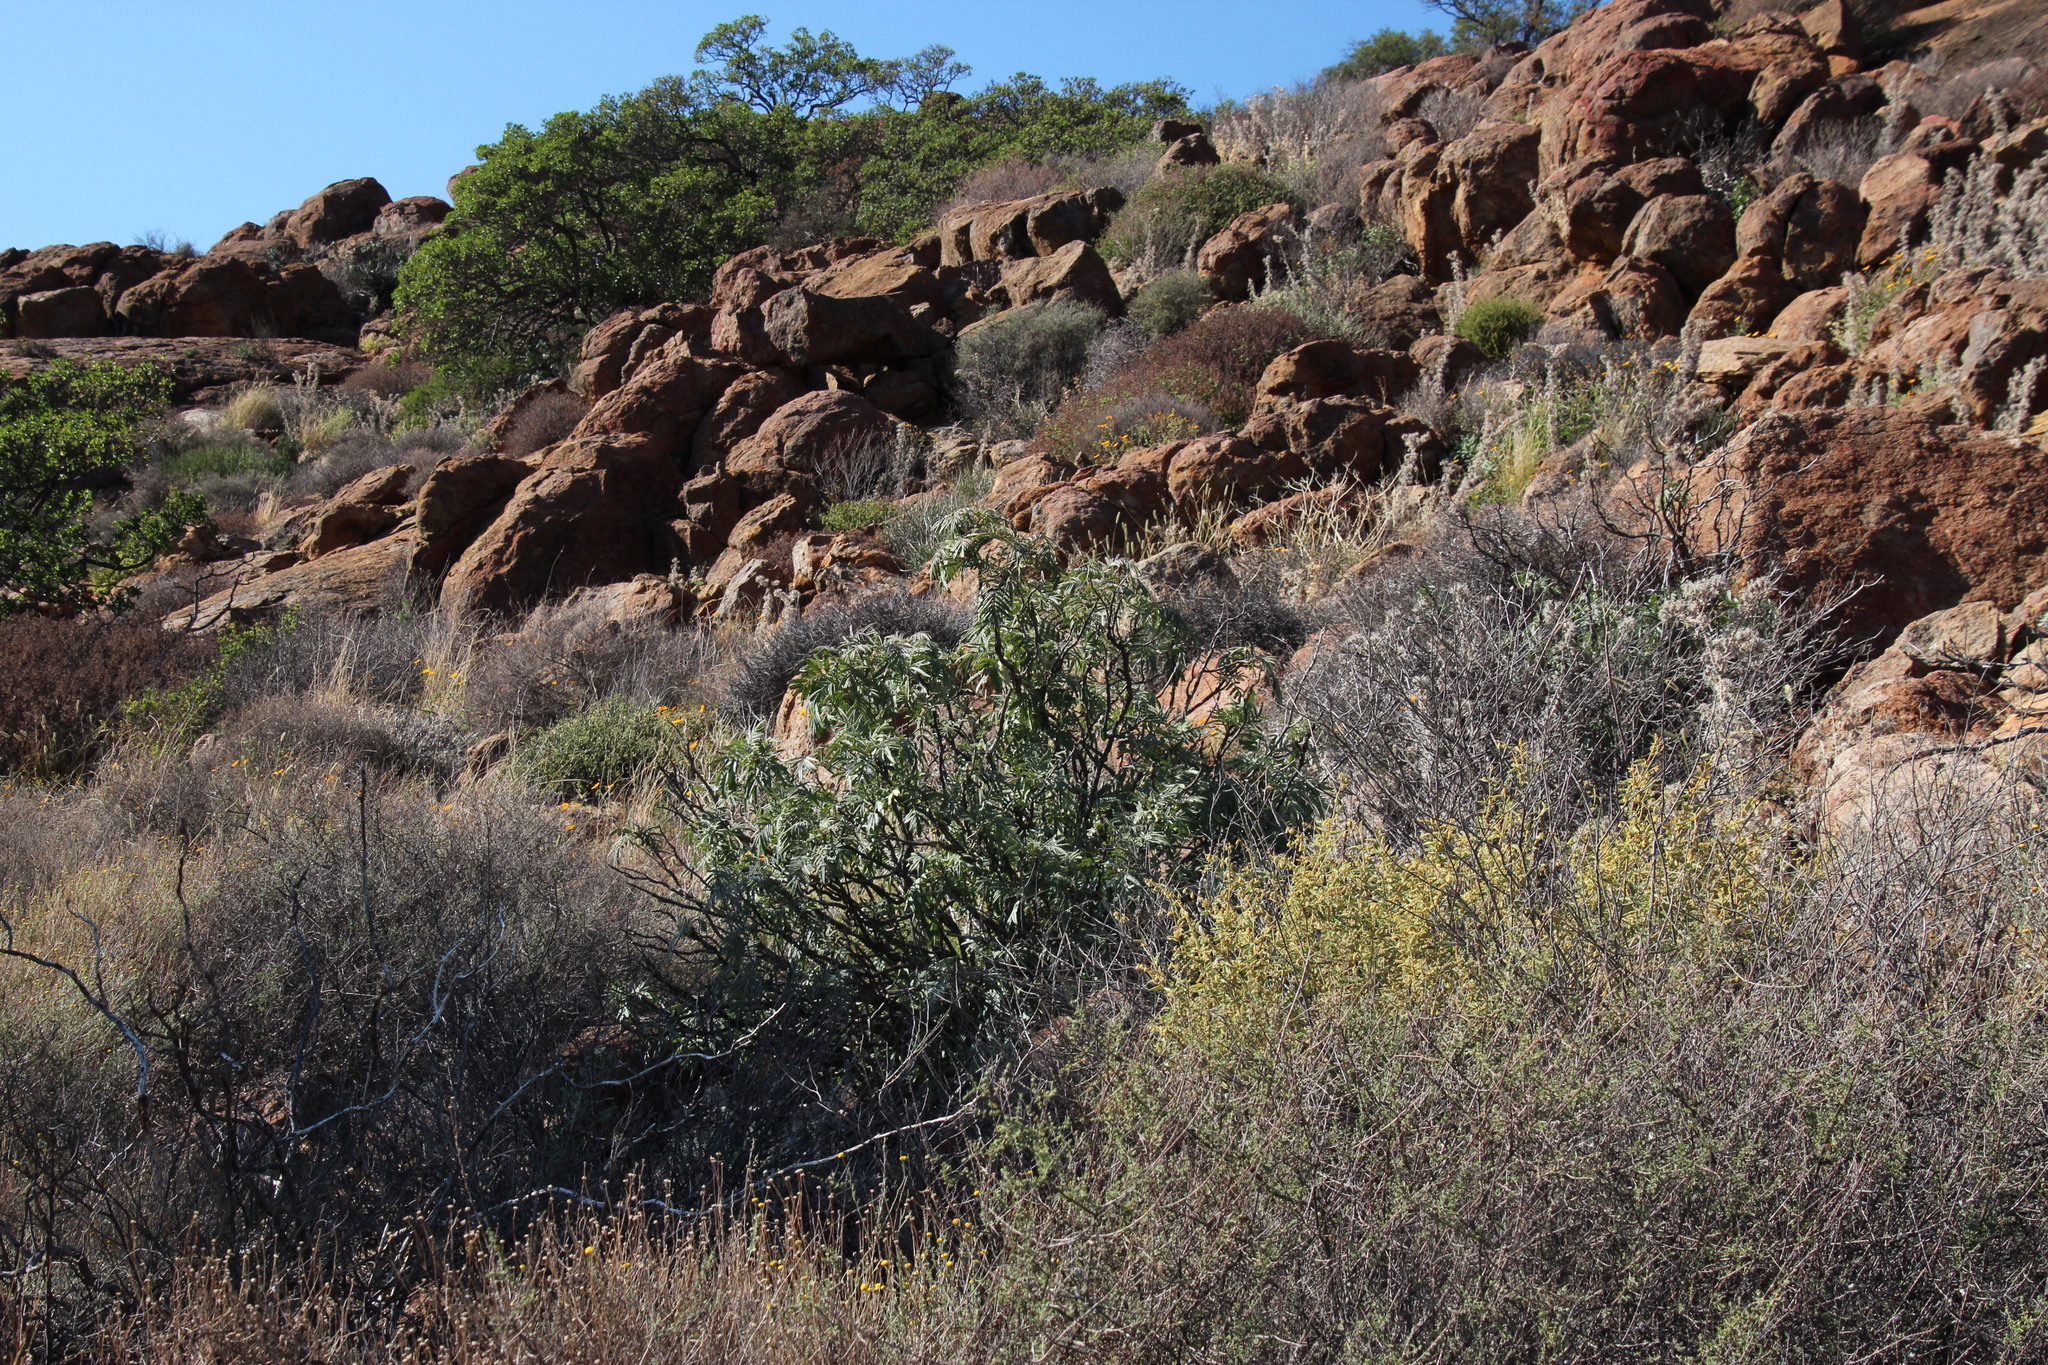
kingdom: Plantae
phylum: Tracheophyta
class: Magnoliopsida
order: Geraniales
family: Melianthaceae
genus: Melianthus
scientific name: Melianthus pectinatus
